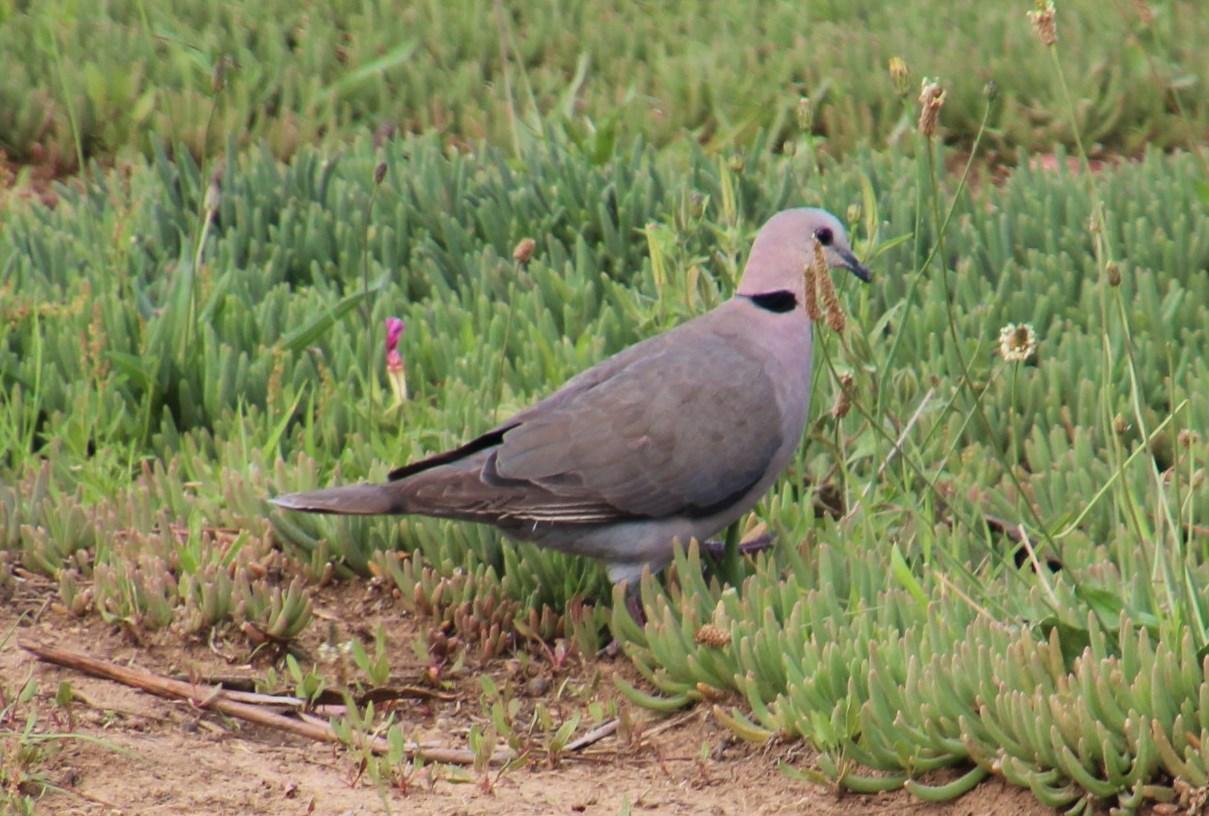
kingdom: Animalia
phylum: Chordata
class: Aves
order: Columbiformes
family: Columbidae
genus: Streptopelia
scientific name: Streptopelia semitorquata
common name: Red-eyed dove
